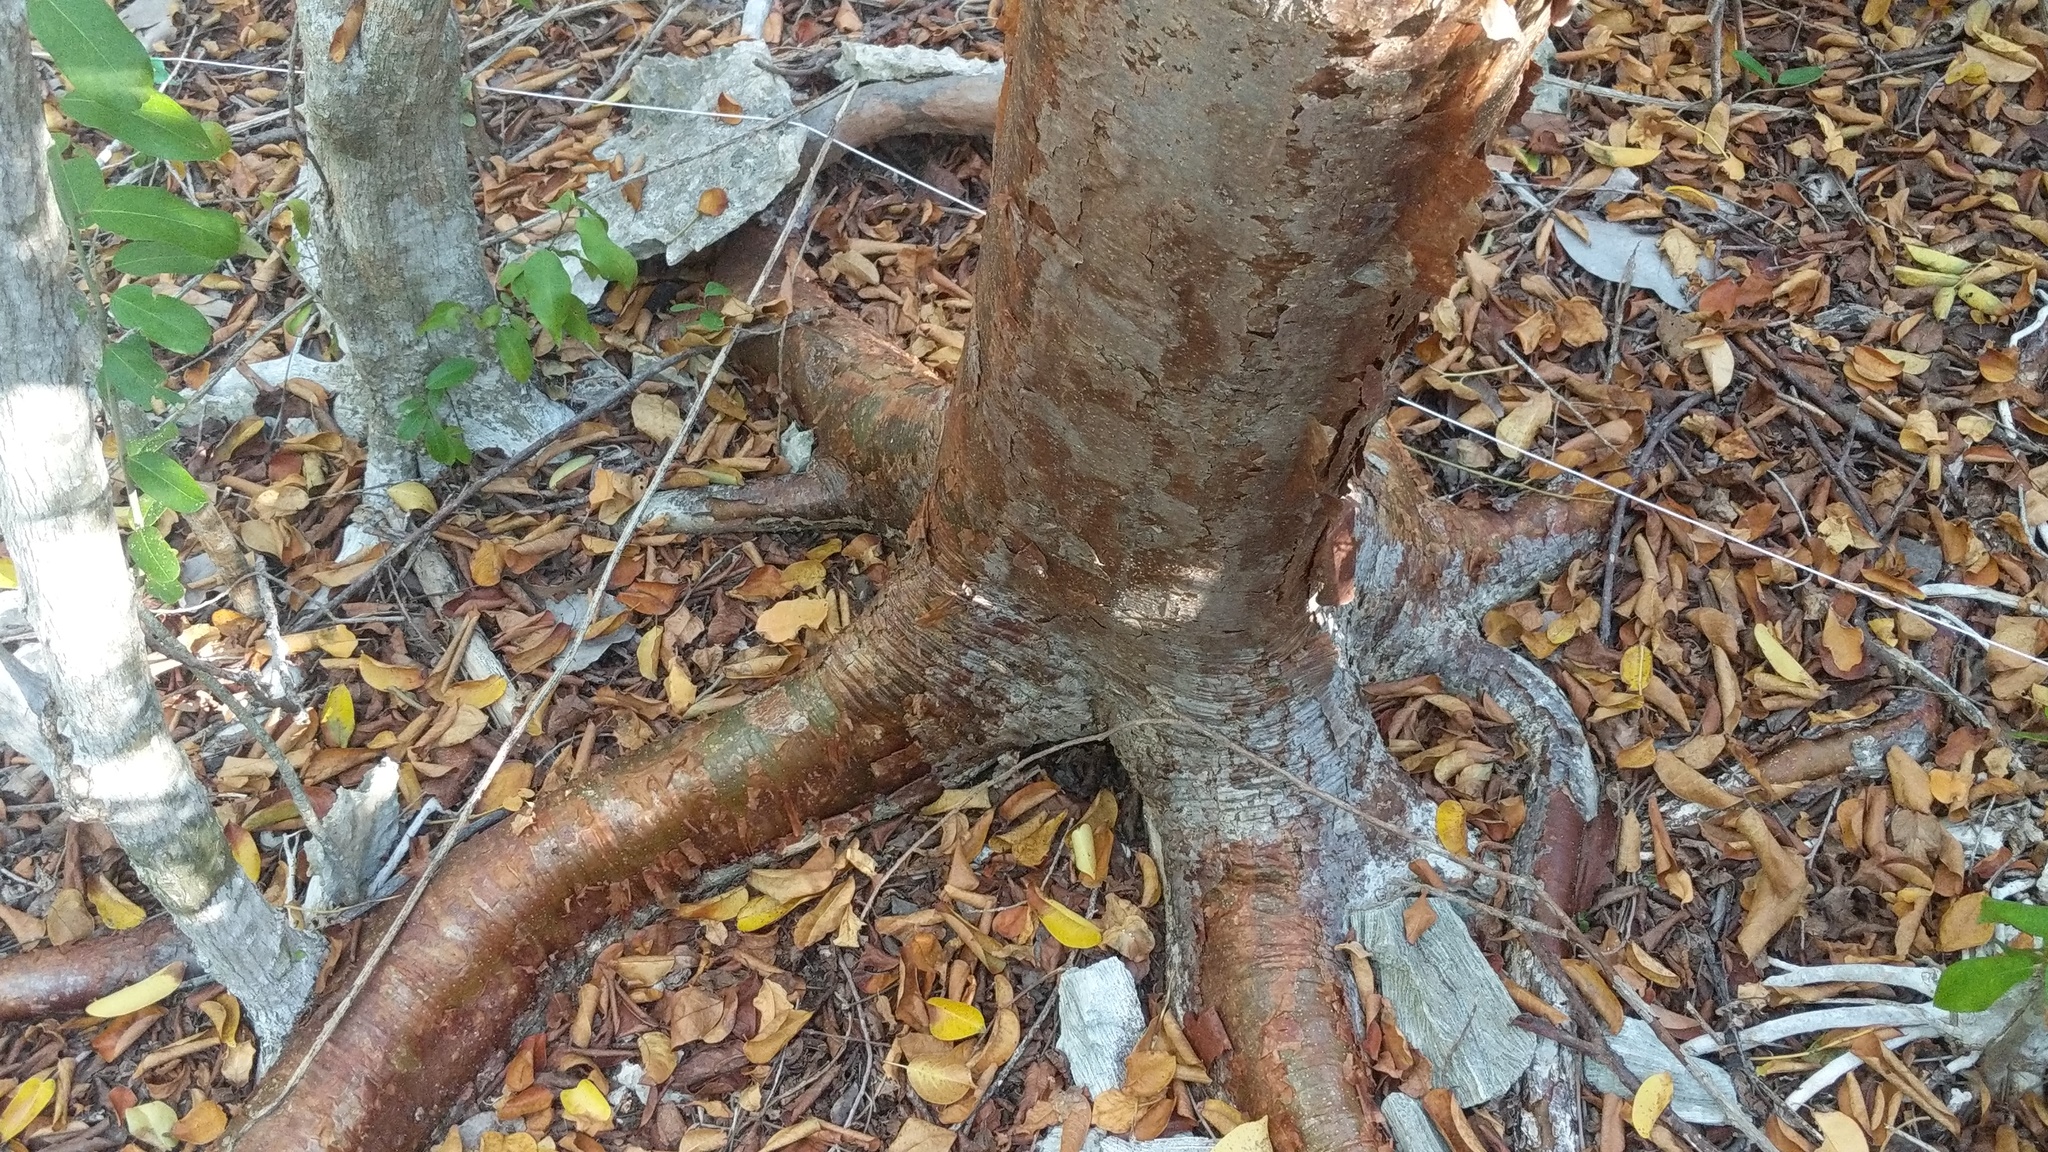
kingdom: Plantae
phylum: Tracheophyta
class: Magnoliopsida
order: Sapindales
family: Burseraceae
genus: Bursera
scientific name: Bursera simaruba
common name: Turpentine tree
